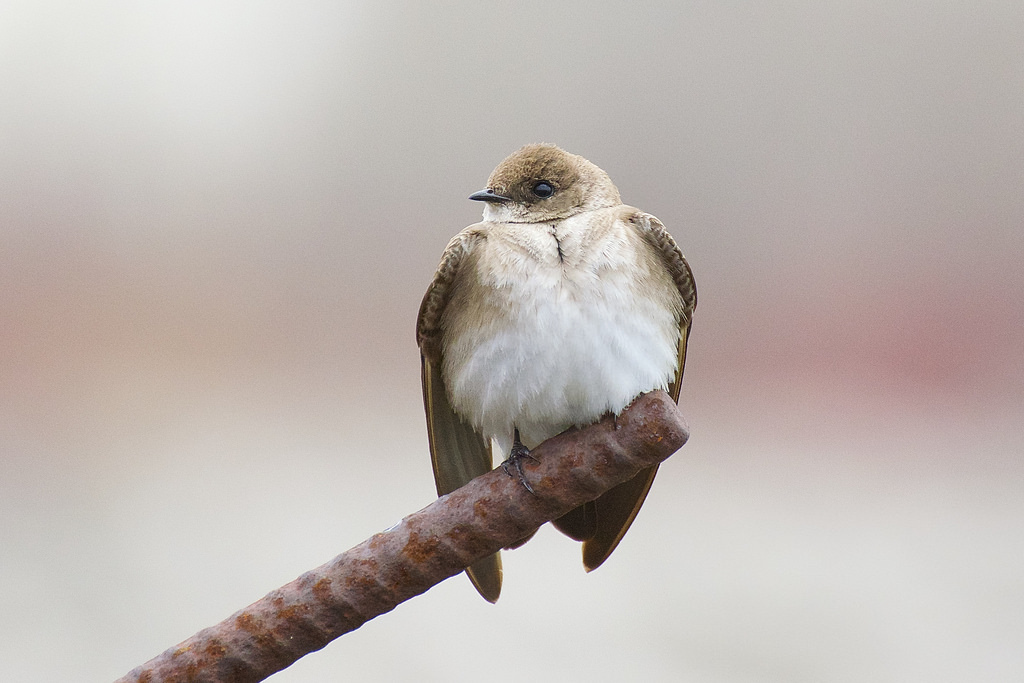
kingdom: Animalia
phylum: Chordata
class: Aves
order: Passeriformes
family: Hirundinidae
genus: Stelgidopteryx
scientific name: Stelgidopteryx serripennis
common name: Northern rough-winged swallow
